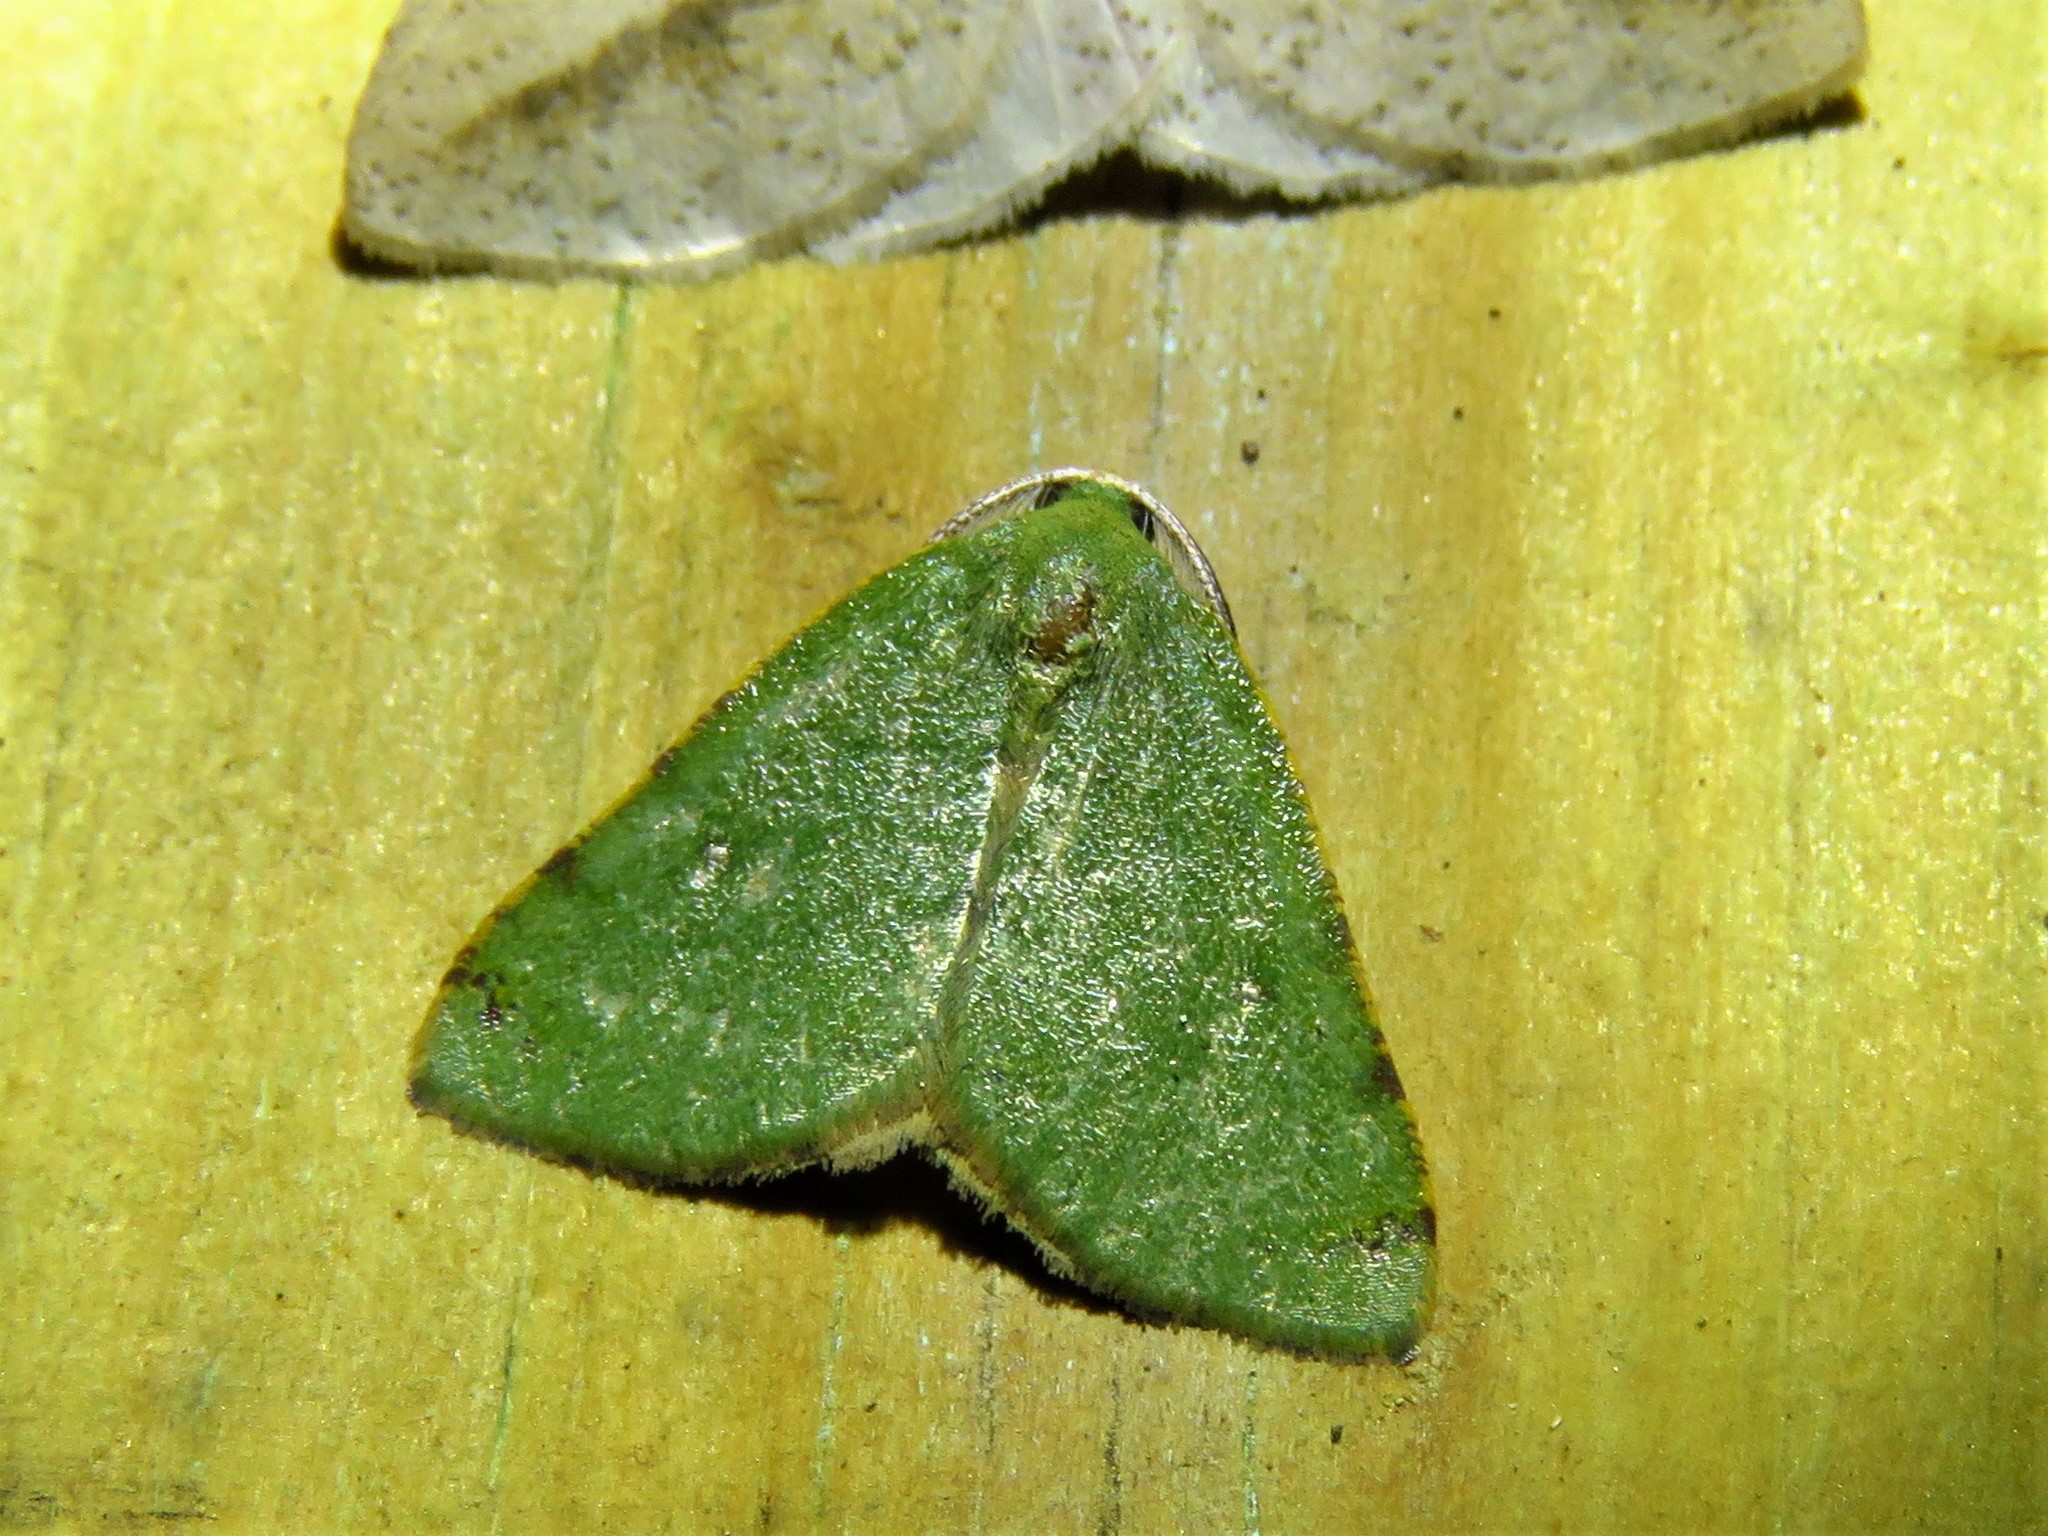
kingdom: Animalia
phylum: Arthropoda
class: Insecta
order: Lepidoptera
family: Geometridae
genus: Chloraspilates
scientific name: Chloraspilates bicoloraria
